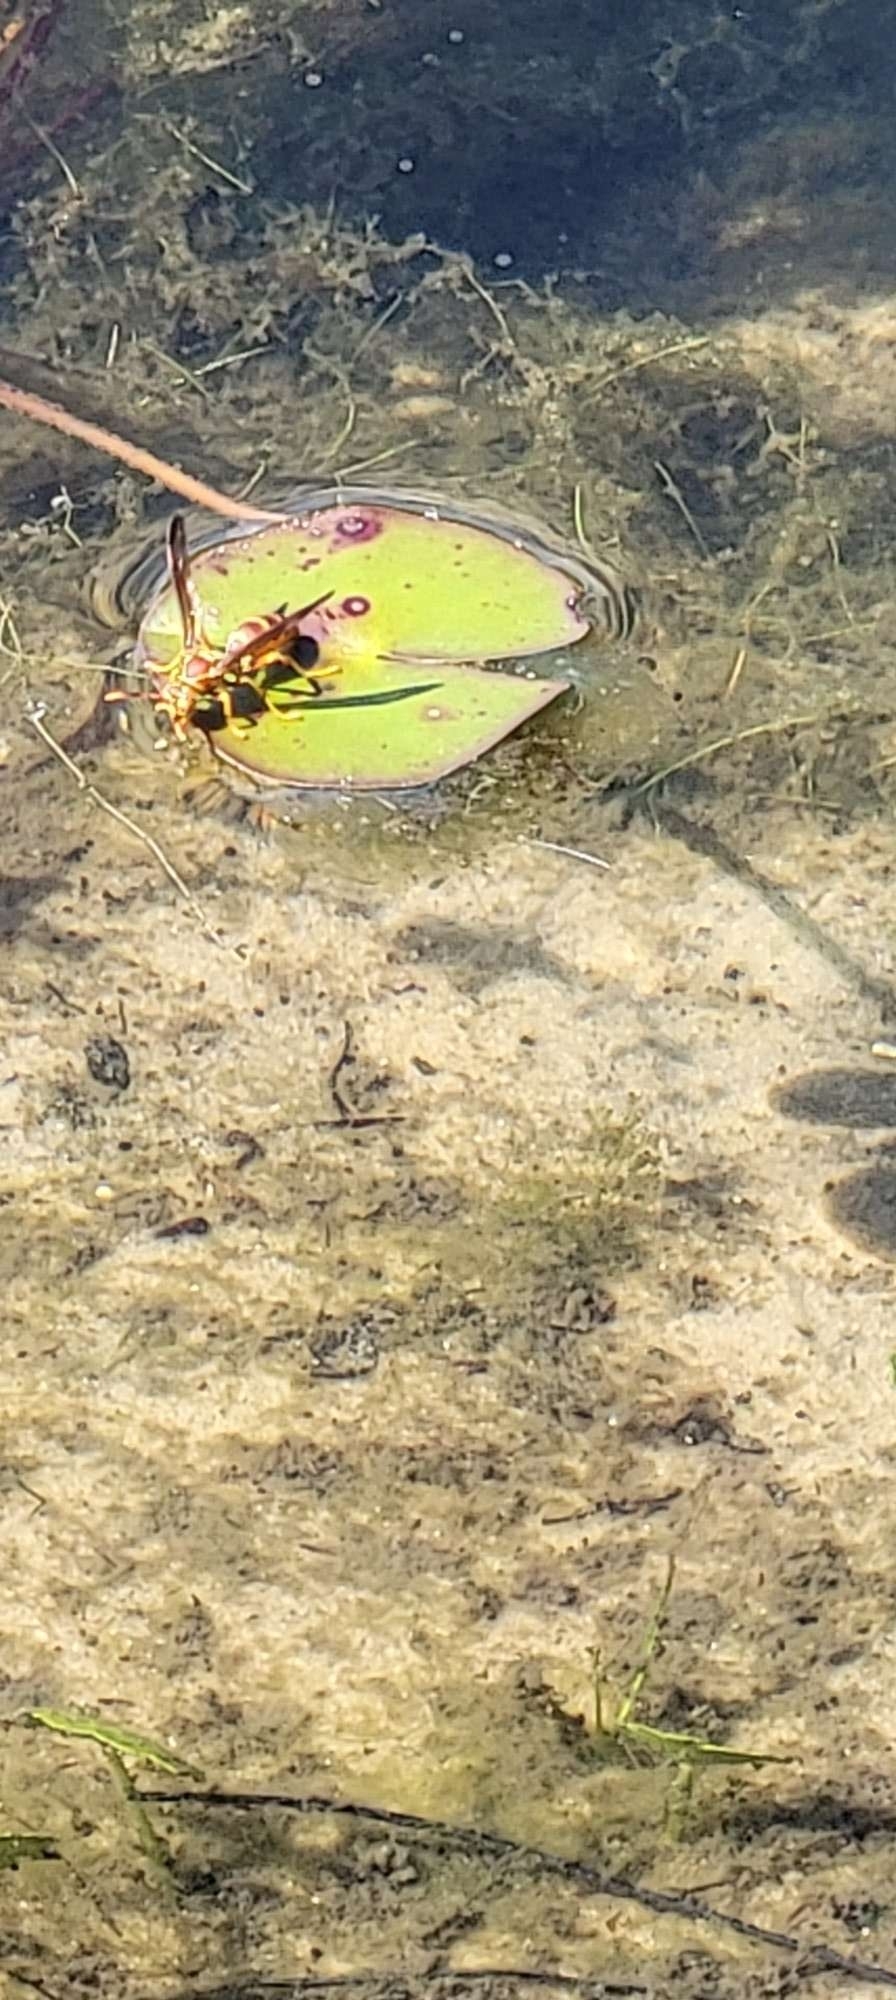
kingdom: Animalia
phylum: Arthropoda
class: Insecta
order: Hymenoptera
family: Eumenidae
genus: Polistes
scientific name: Polistes exclamans
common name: Paper wasp
